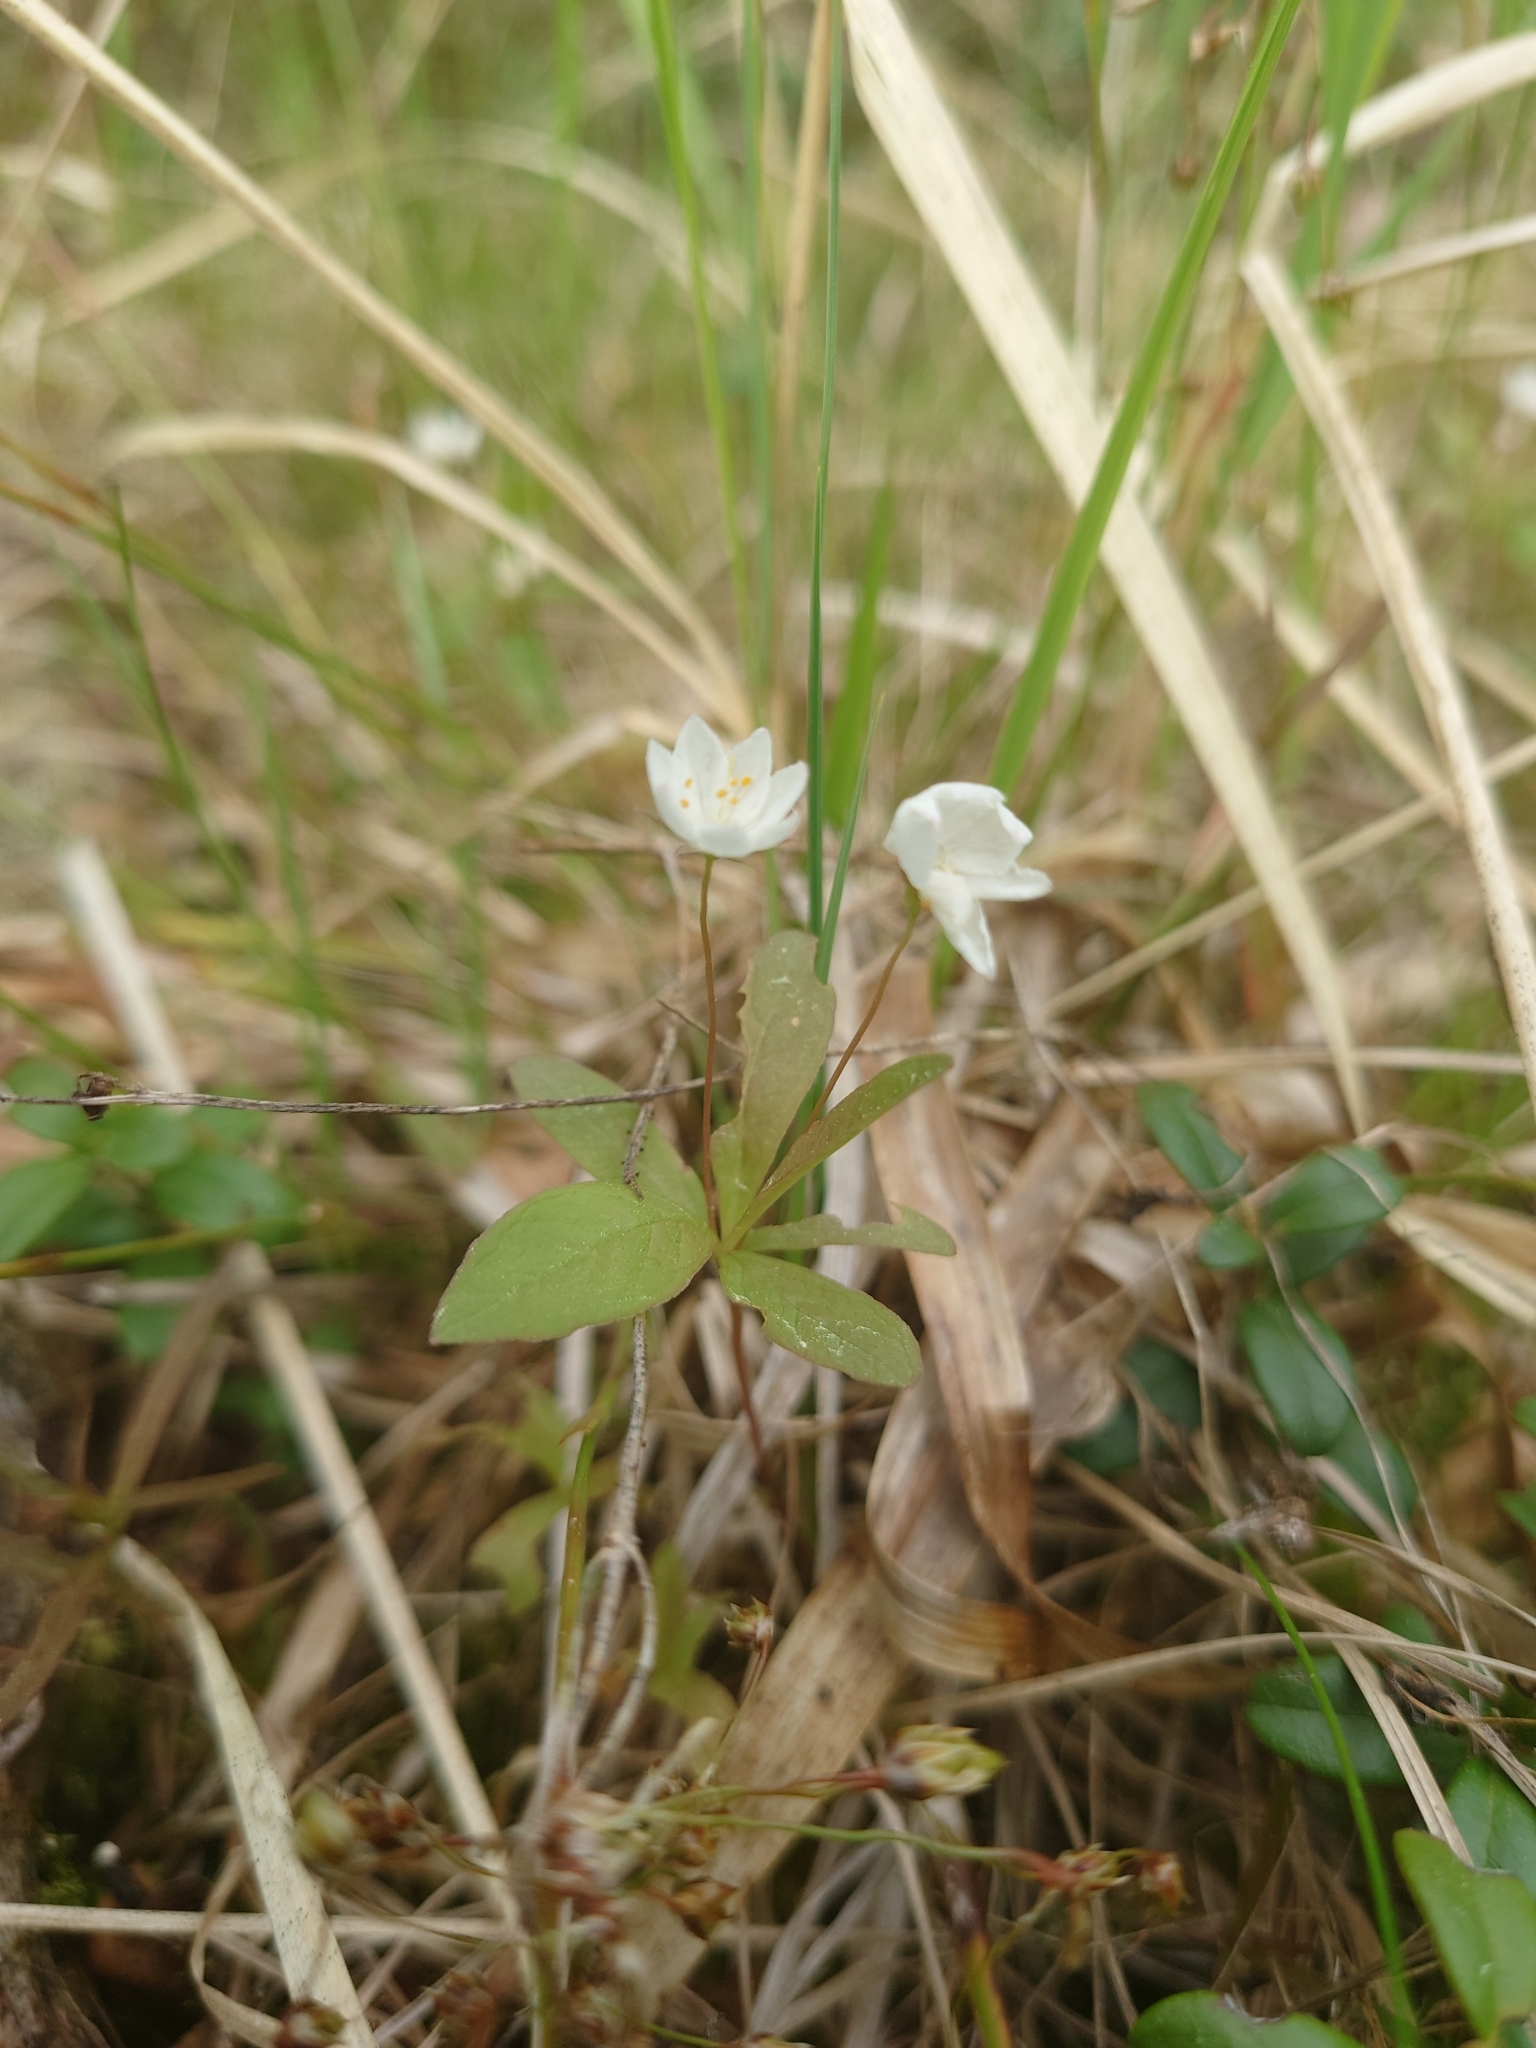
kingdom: Plantae
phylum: Tracheophyta
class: Magnoliopsida
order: Ericales
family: Primulaceae
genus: Lysimachia
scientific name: Lysimachia europaea
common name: Arctic starflower
